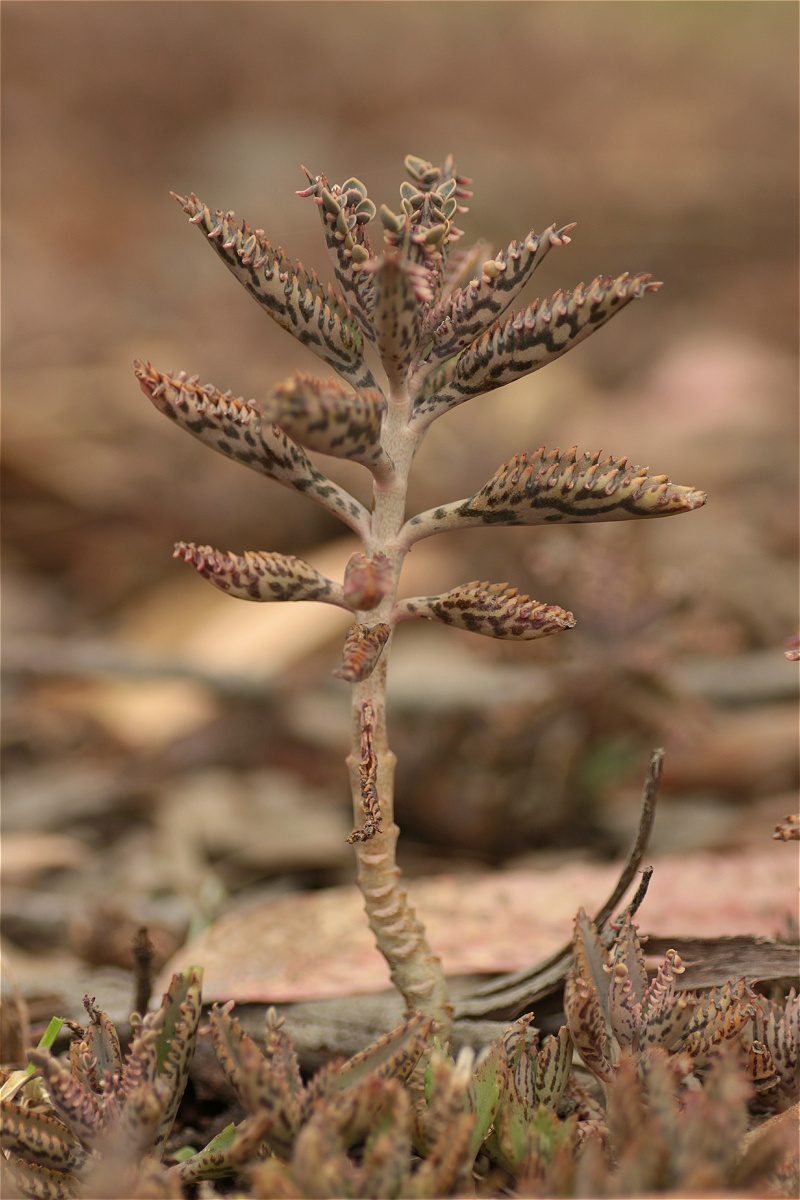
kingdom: Plantae
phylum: Tracheophyta
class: Magnoliopsida
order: Saxifragales
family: Crassulaceae
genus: Kalanchoe
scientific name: Kalanchoe houghtonii
